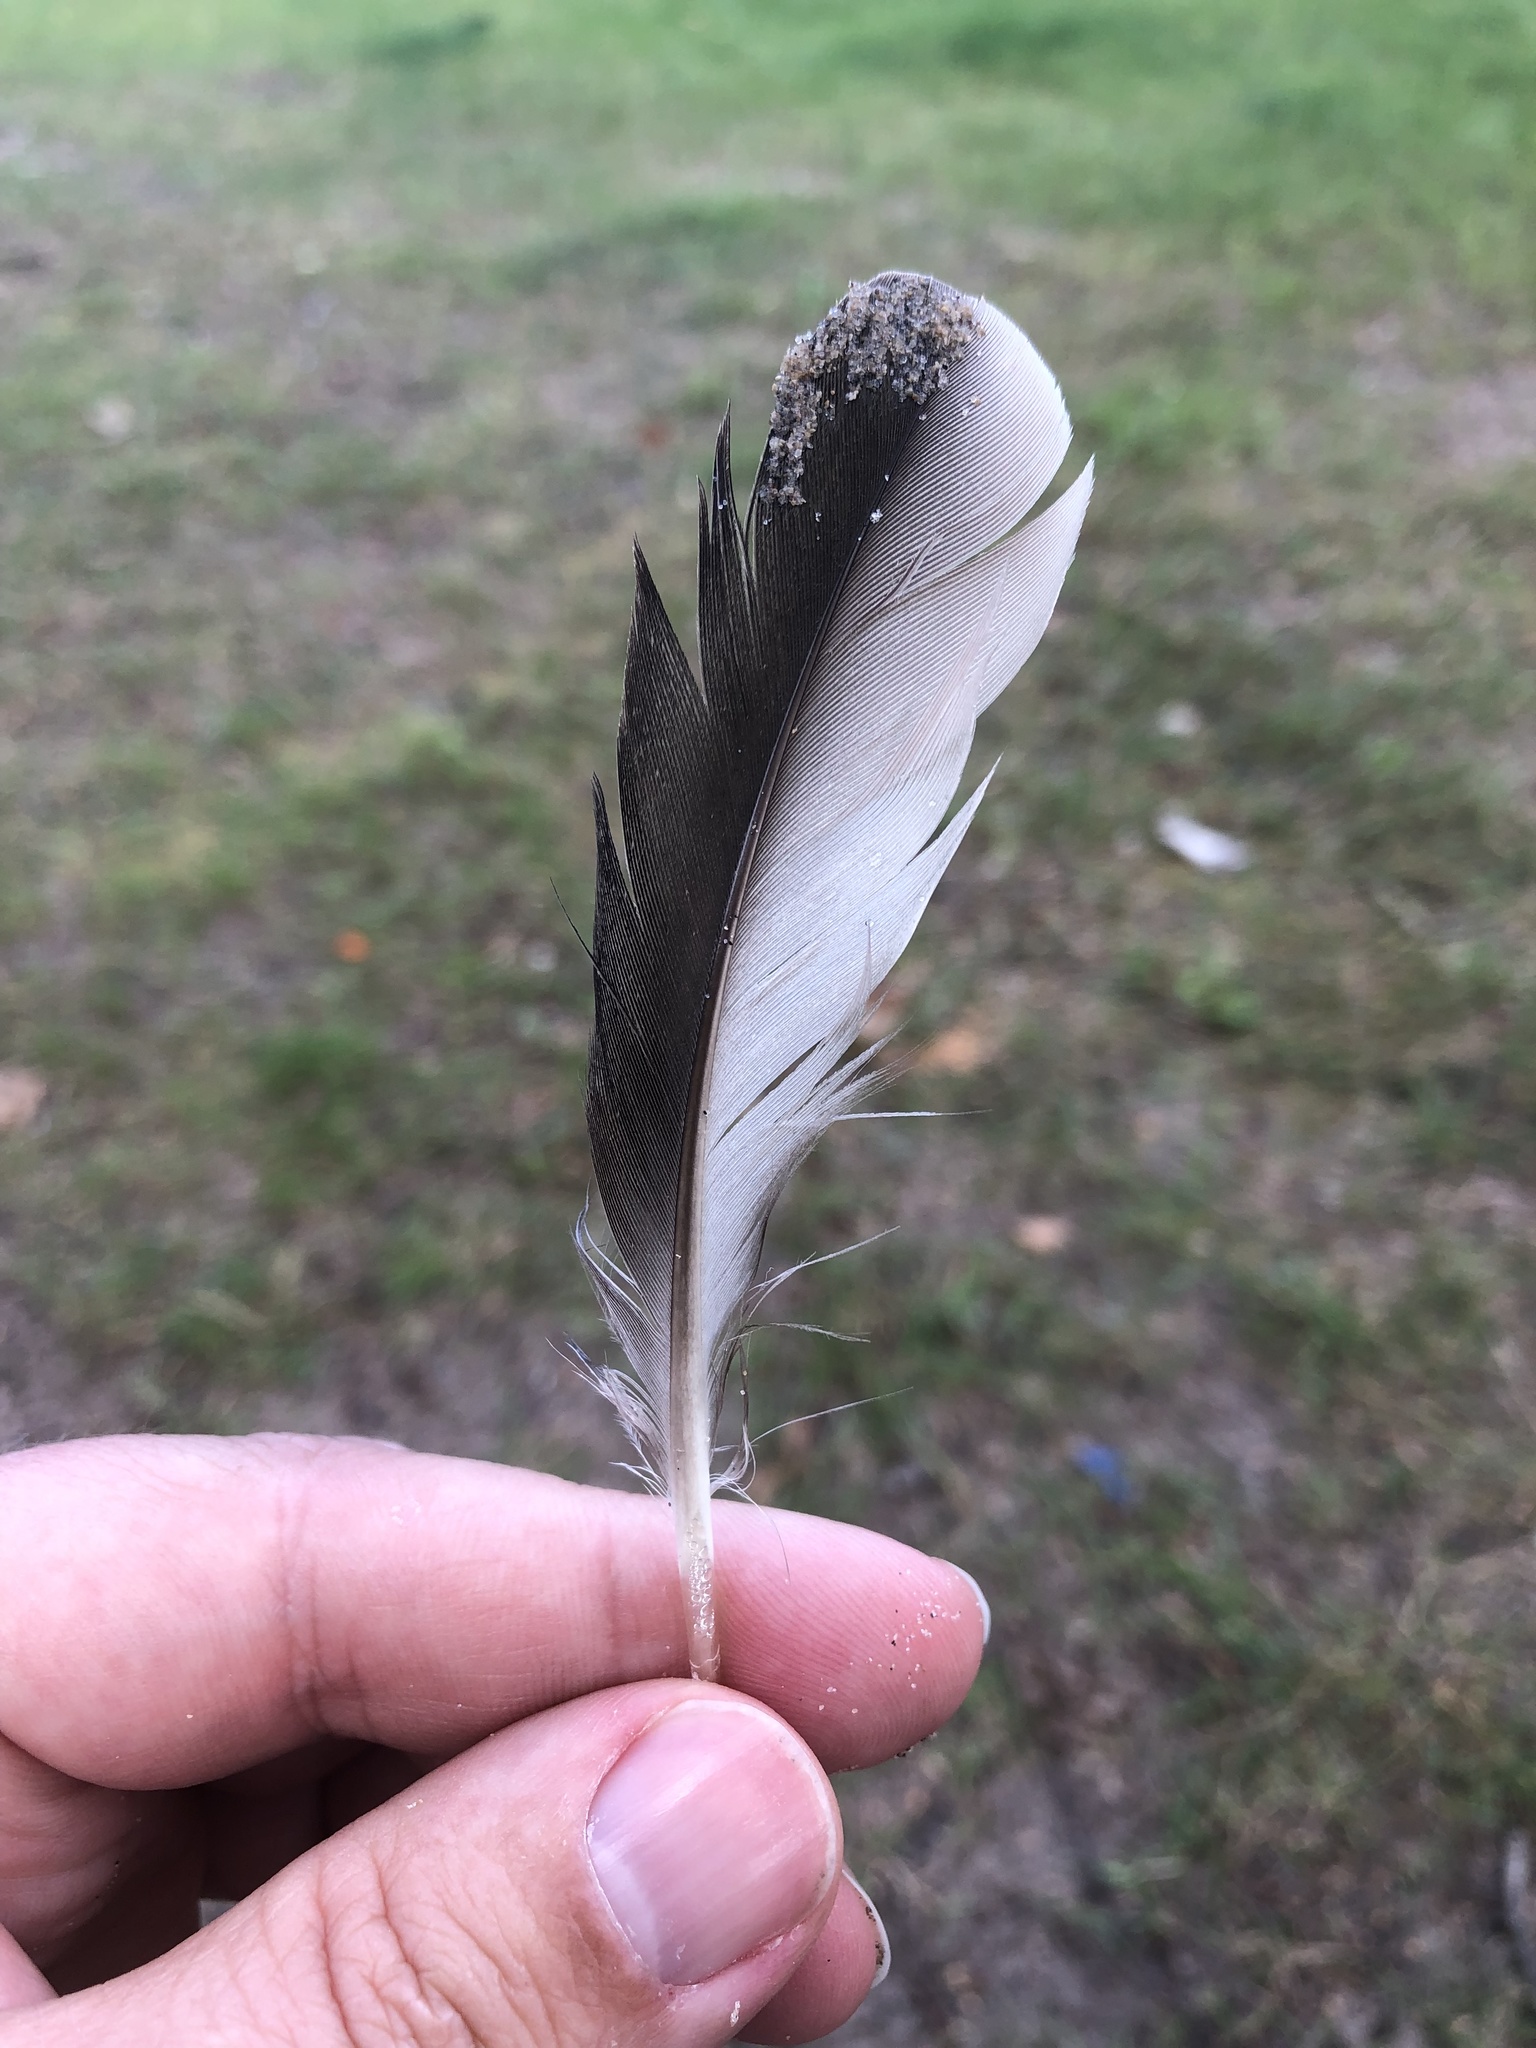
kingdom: Animalia
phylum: Chordata
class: Aves
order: Anseriformes
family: Anatidae
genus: Mergus
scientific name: Mergus merganser
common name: Common merganser
